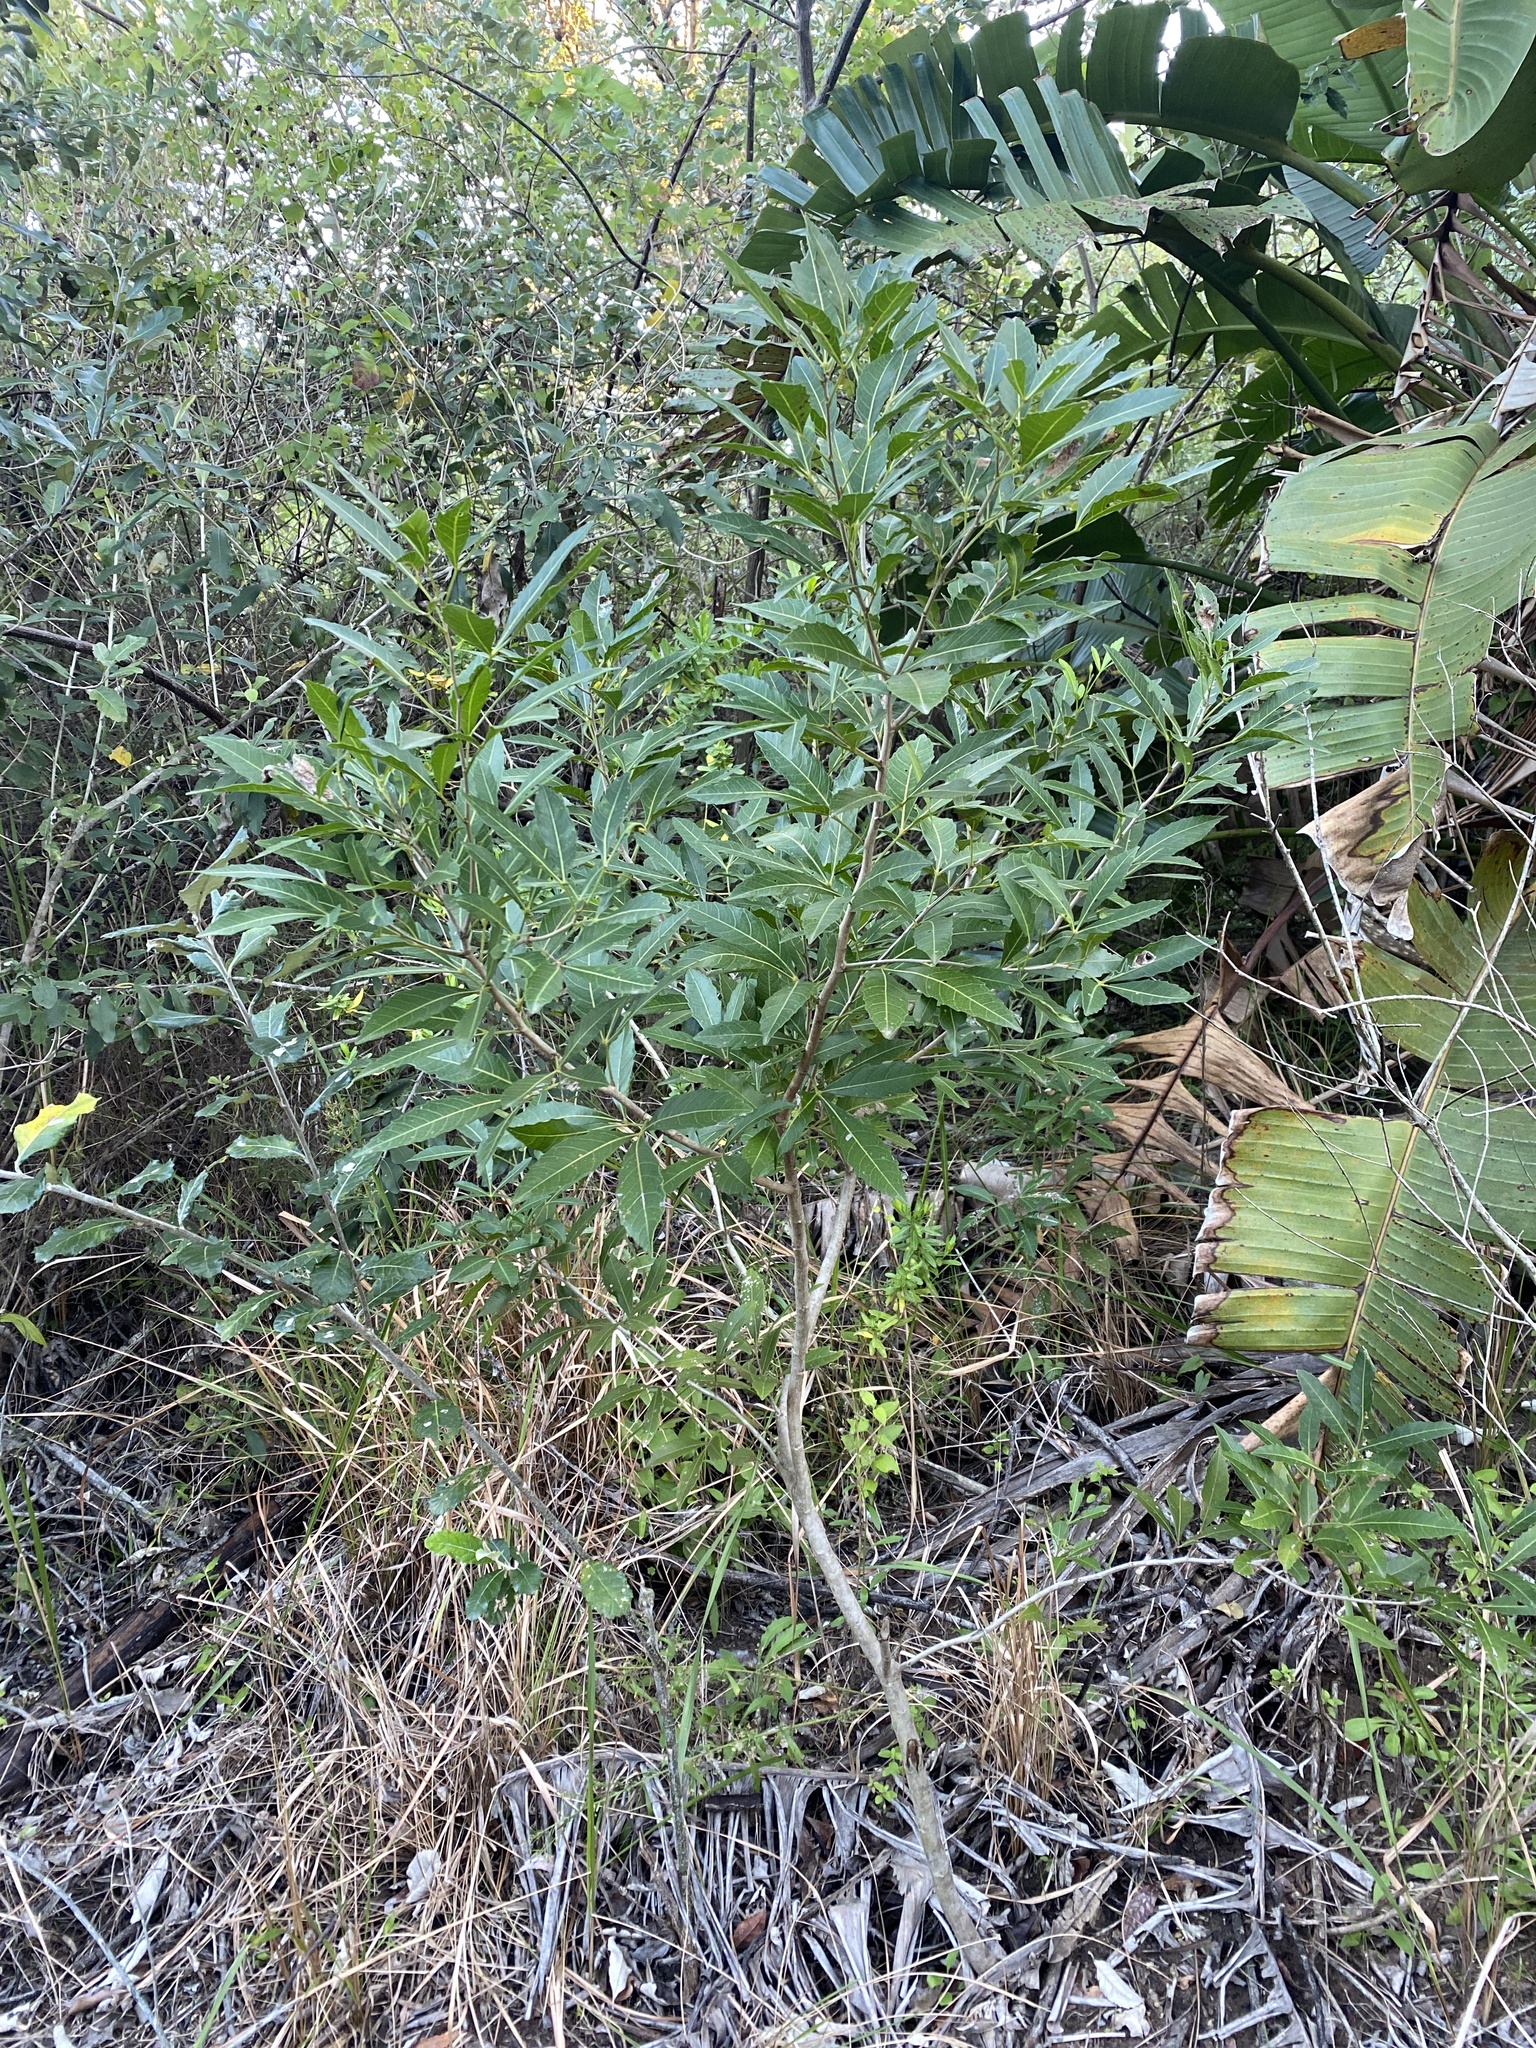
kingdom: Plantae
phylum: Tracheophyta
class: Magnoliopsida
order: Sapindales
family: Sapindaceae
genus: Allophylus
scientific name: Allophylus natalensis
